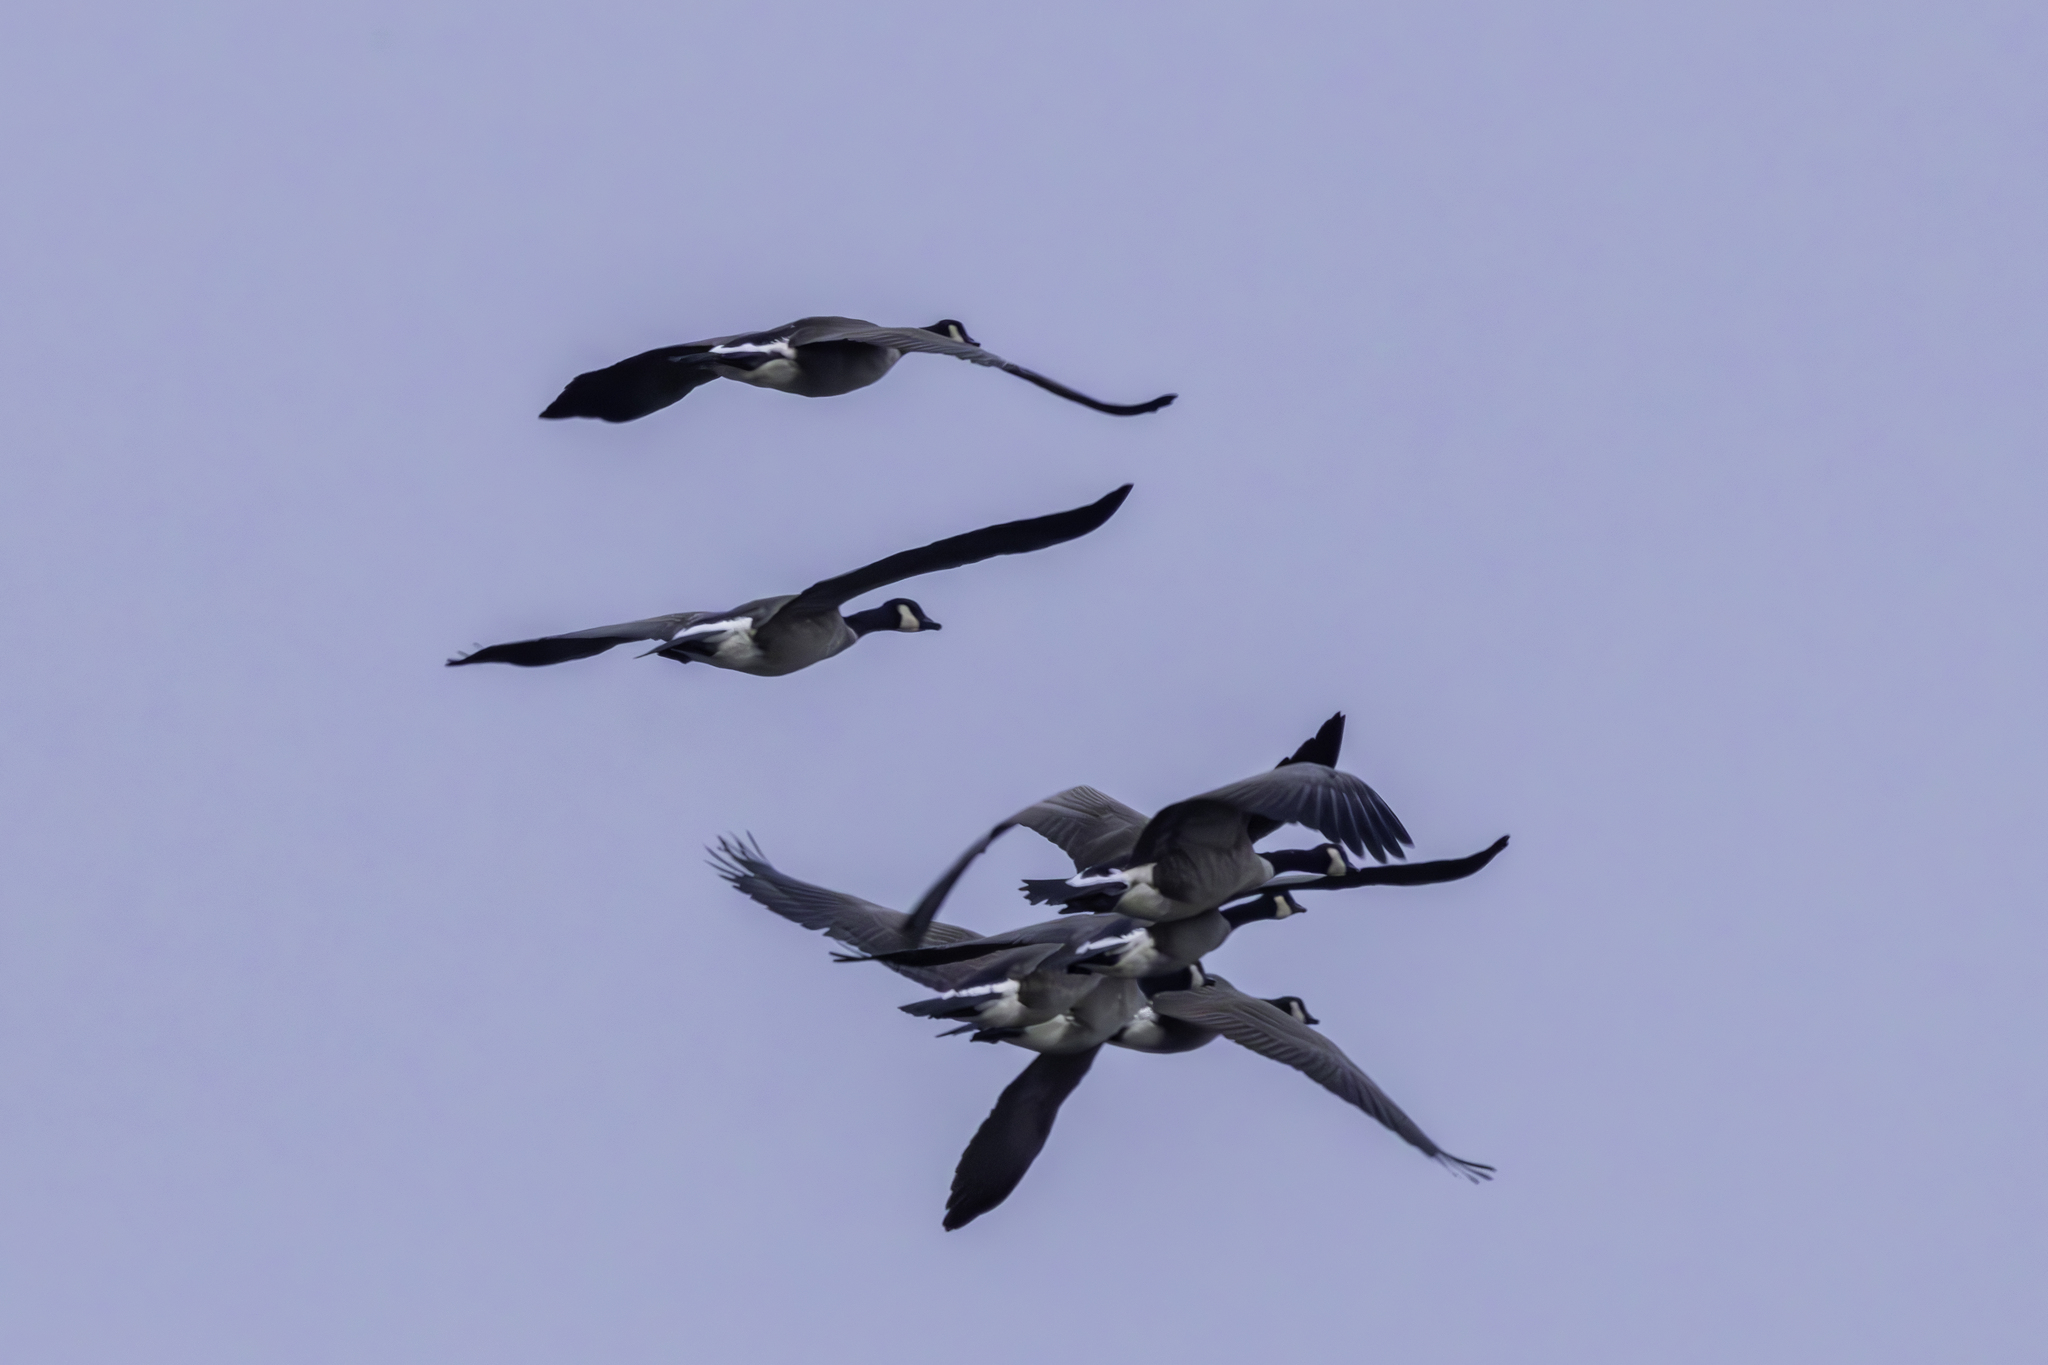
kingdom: Animalia
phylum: Chordata
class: Aves
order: Anseriformes
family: Anatidae
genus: Branta
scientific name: Branta canadensis
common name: Canada goose
